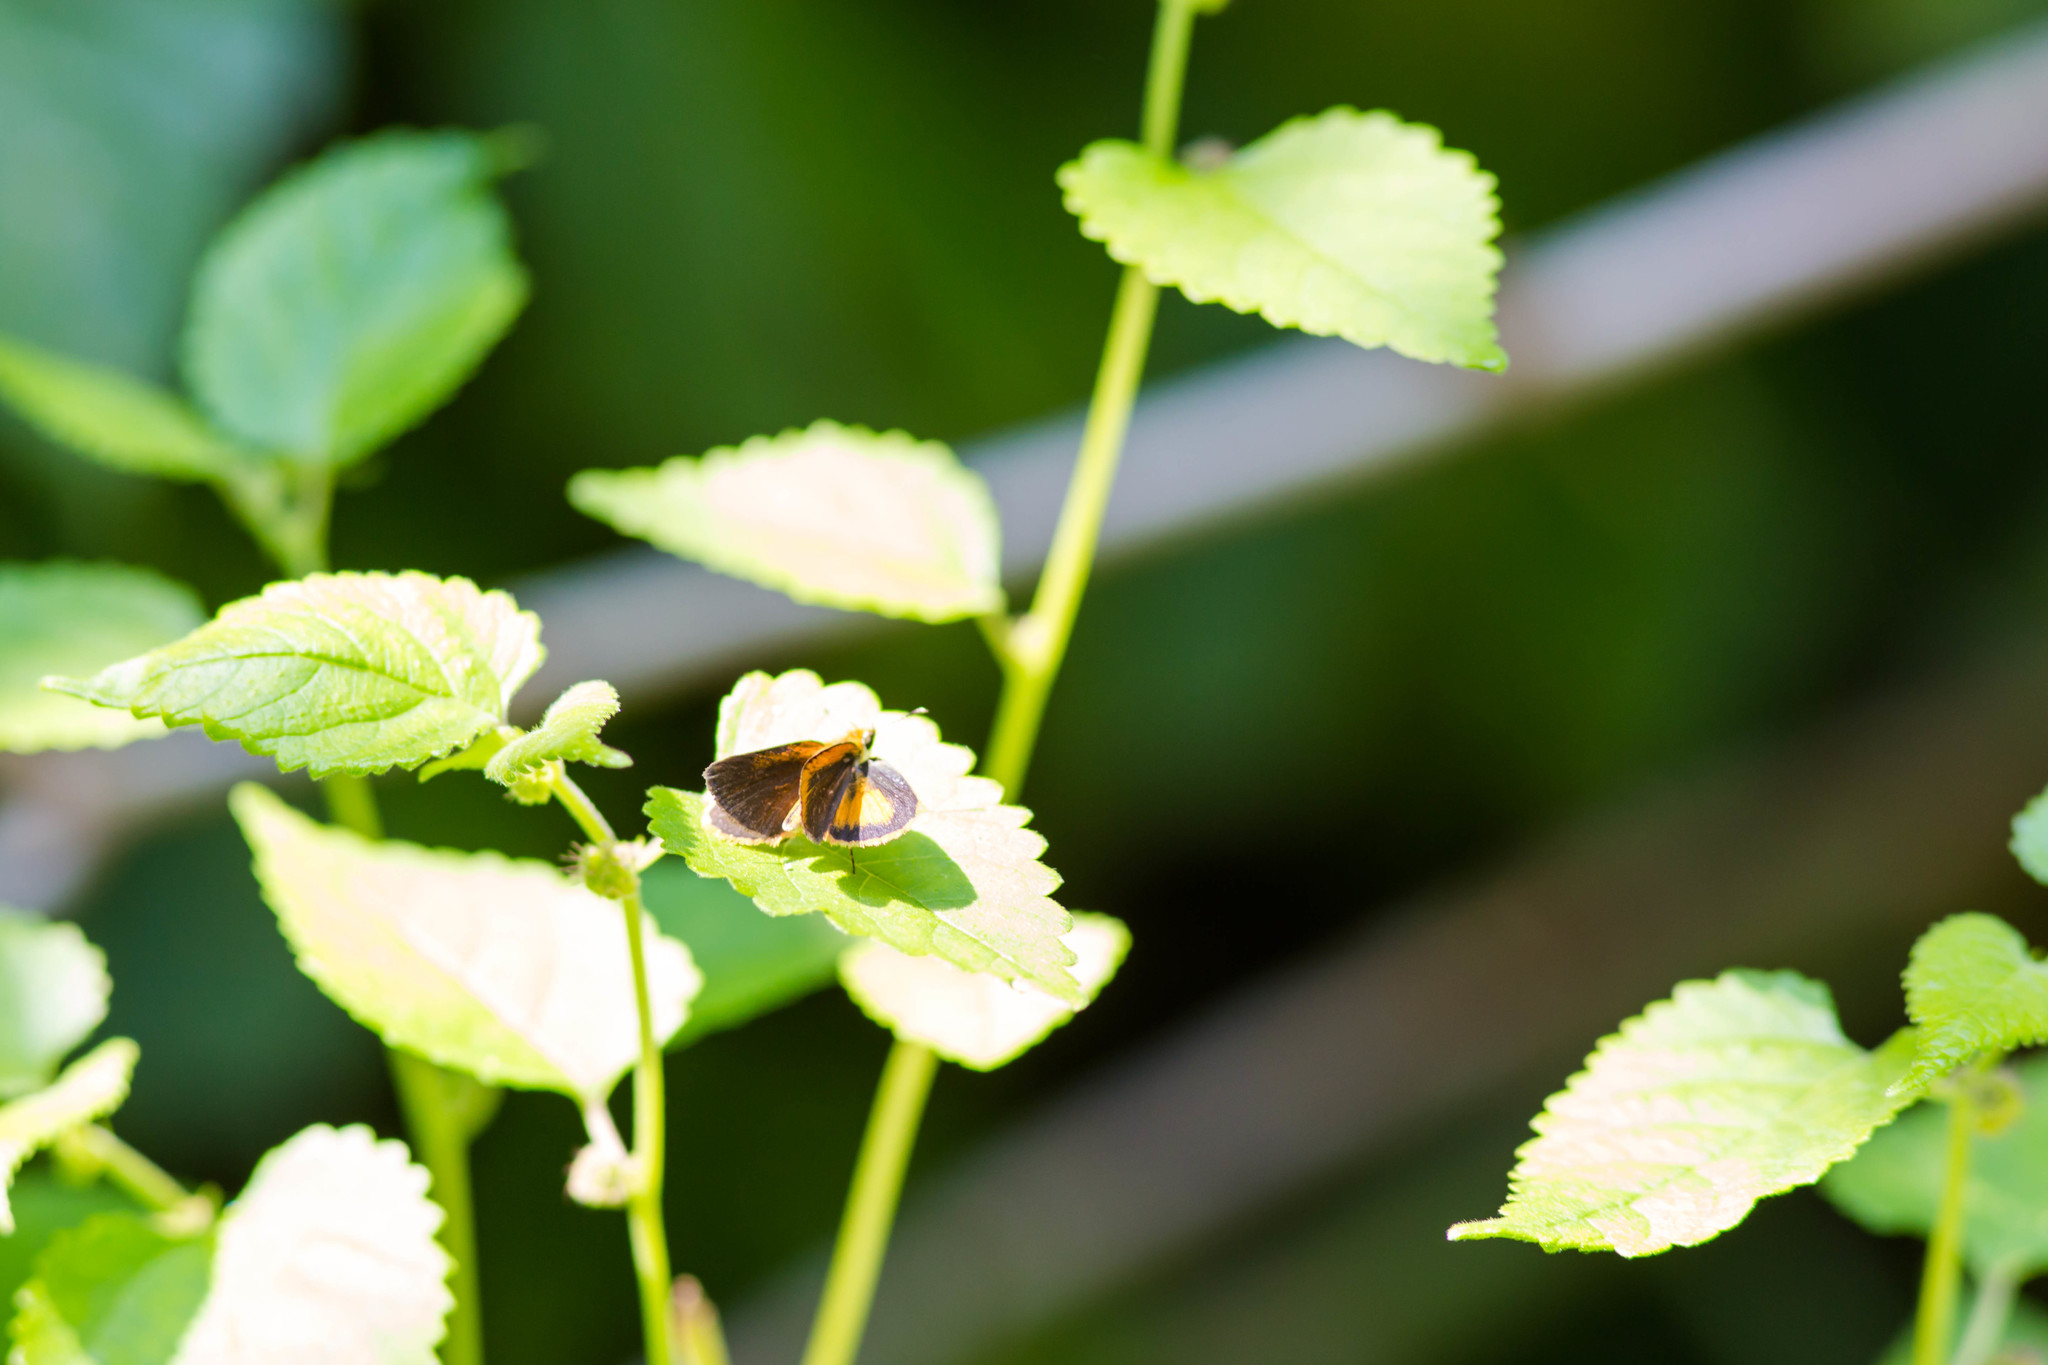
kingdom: Animalia
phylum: Arthropoda
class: Insecta
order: Lepidoptera
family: Hesperiidae
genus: Ancyloxypha
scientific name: Ancyloxypha numitor
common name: Least skipper
